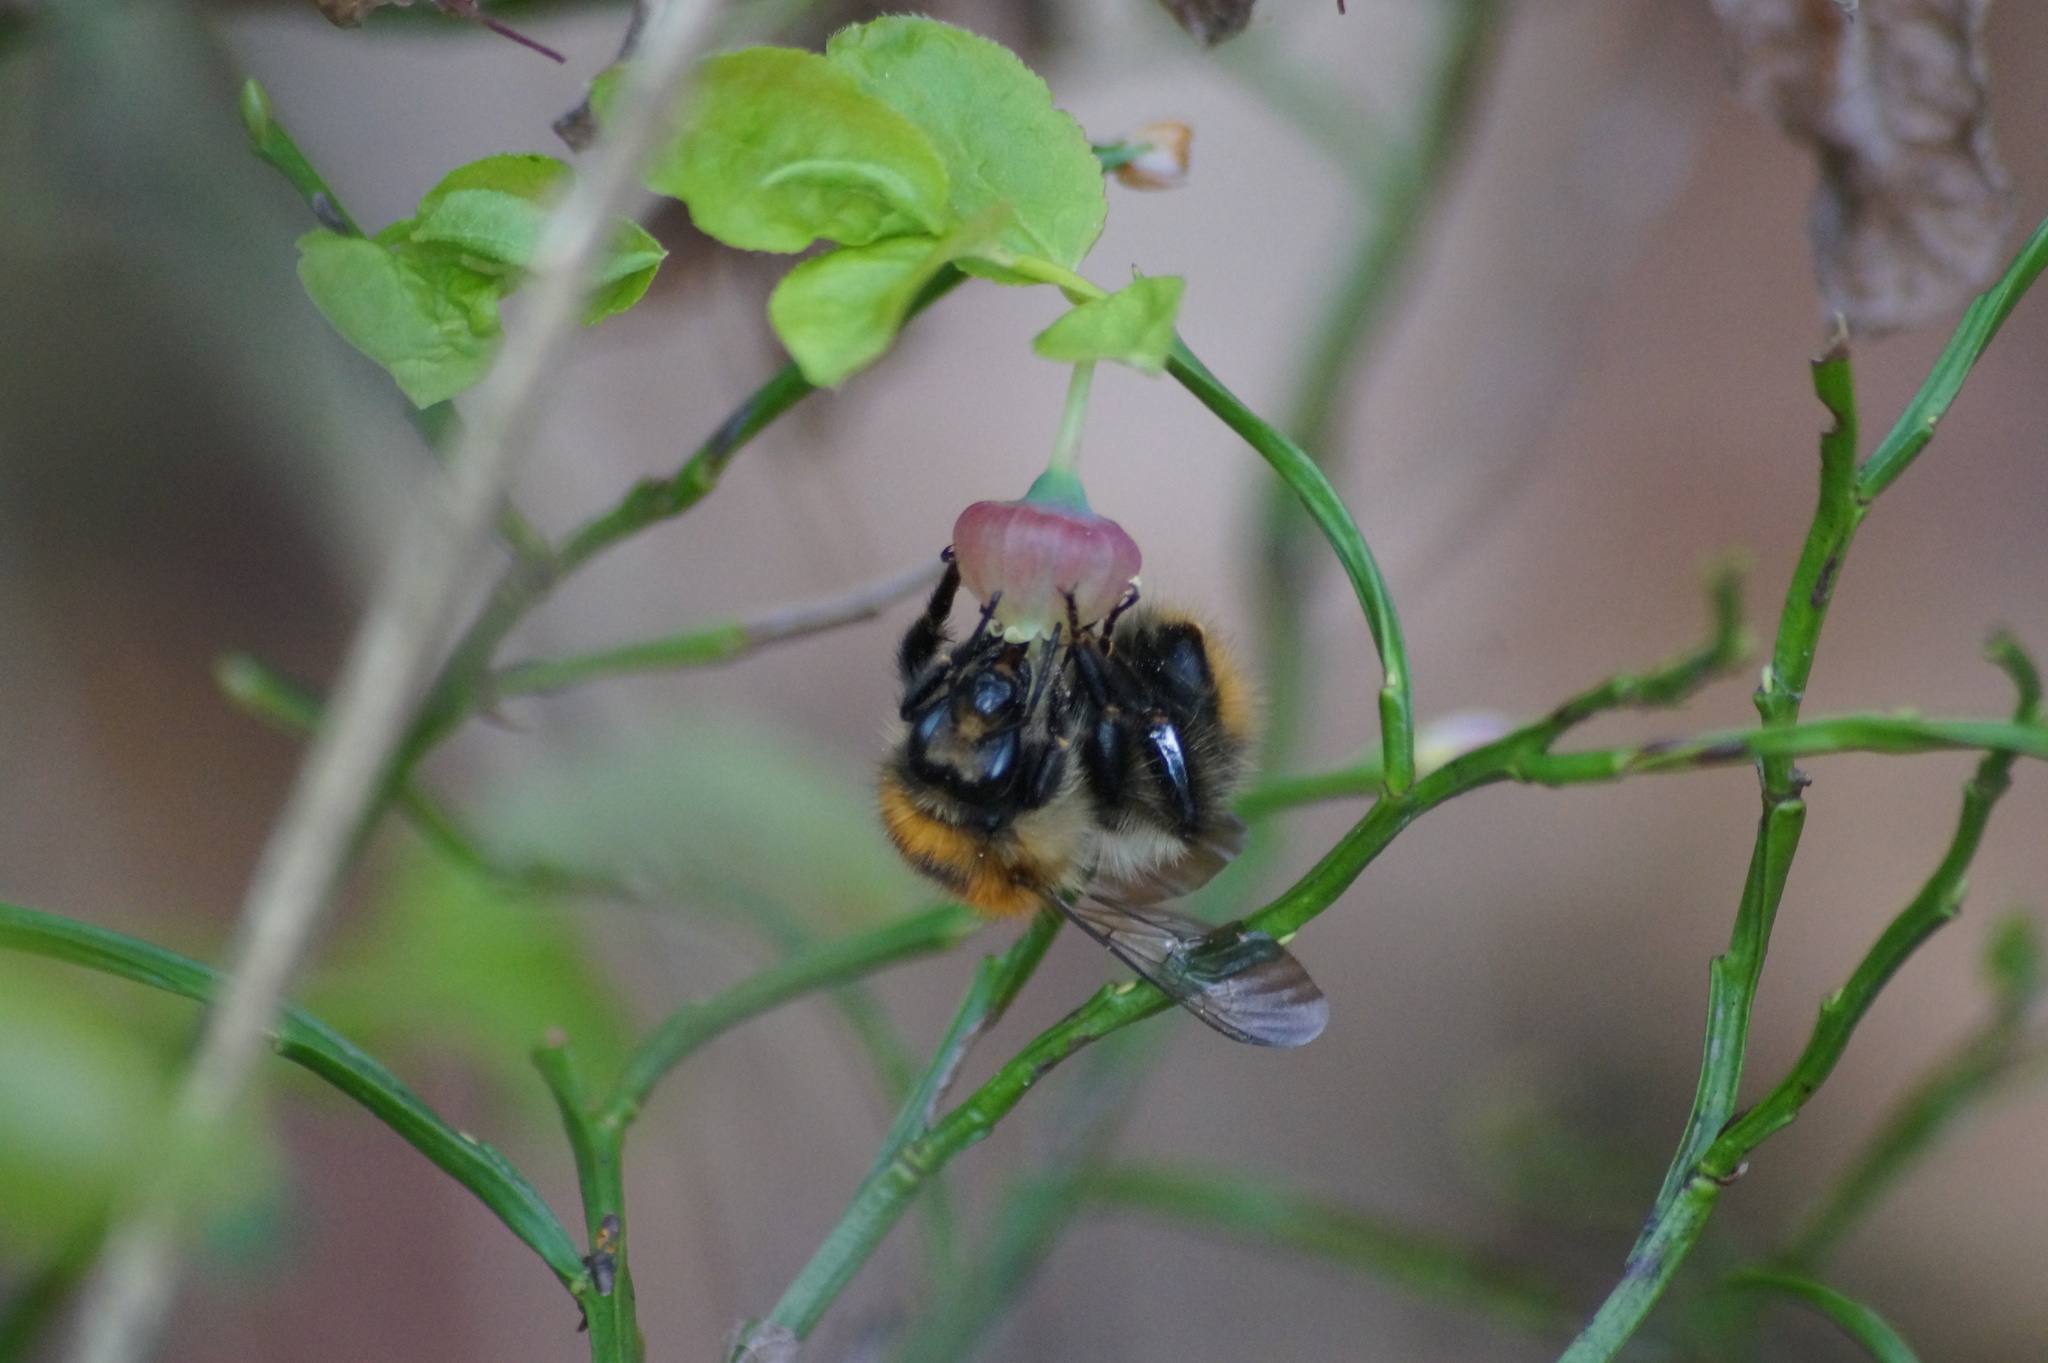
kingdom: Animalia
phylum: Arthropoda
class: Insecta
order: Hymenoptera
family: Apidae
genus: Bombus
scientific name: Bombus pascuorum
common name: Common carder bee
